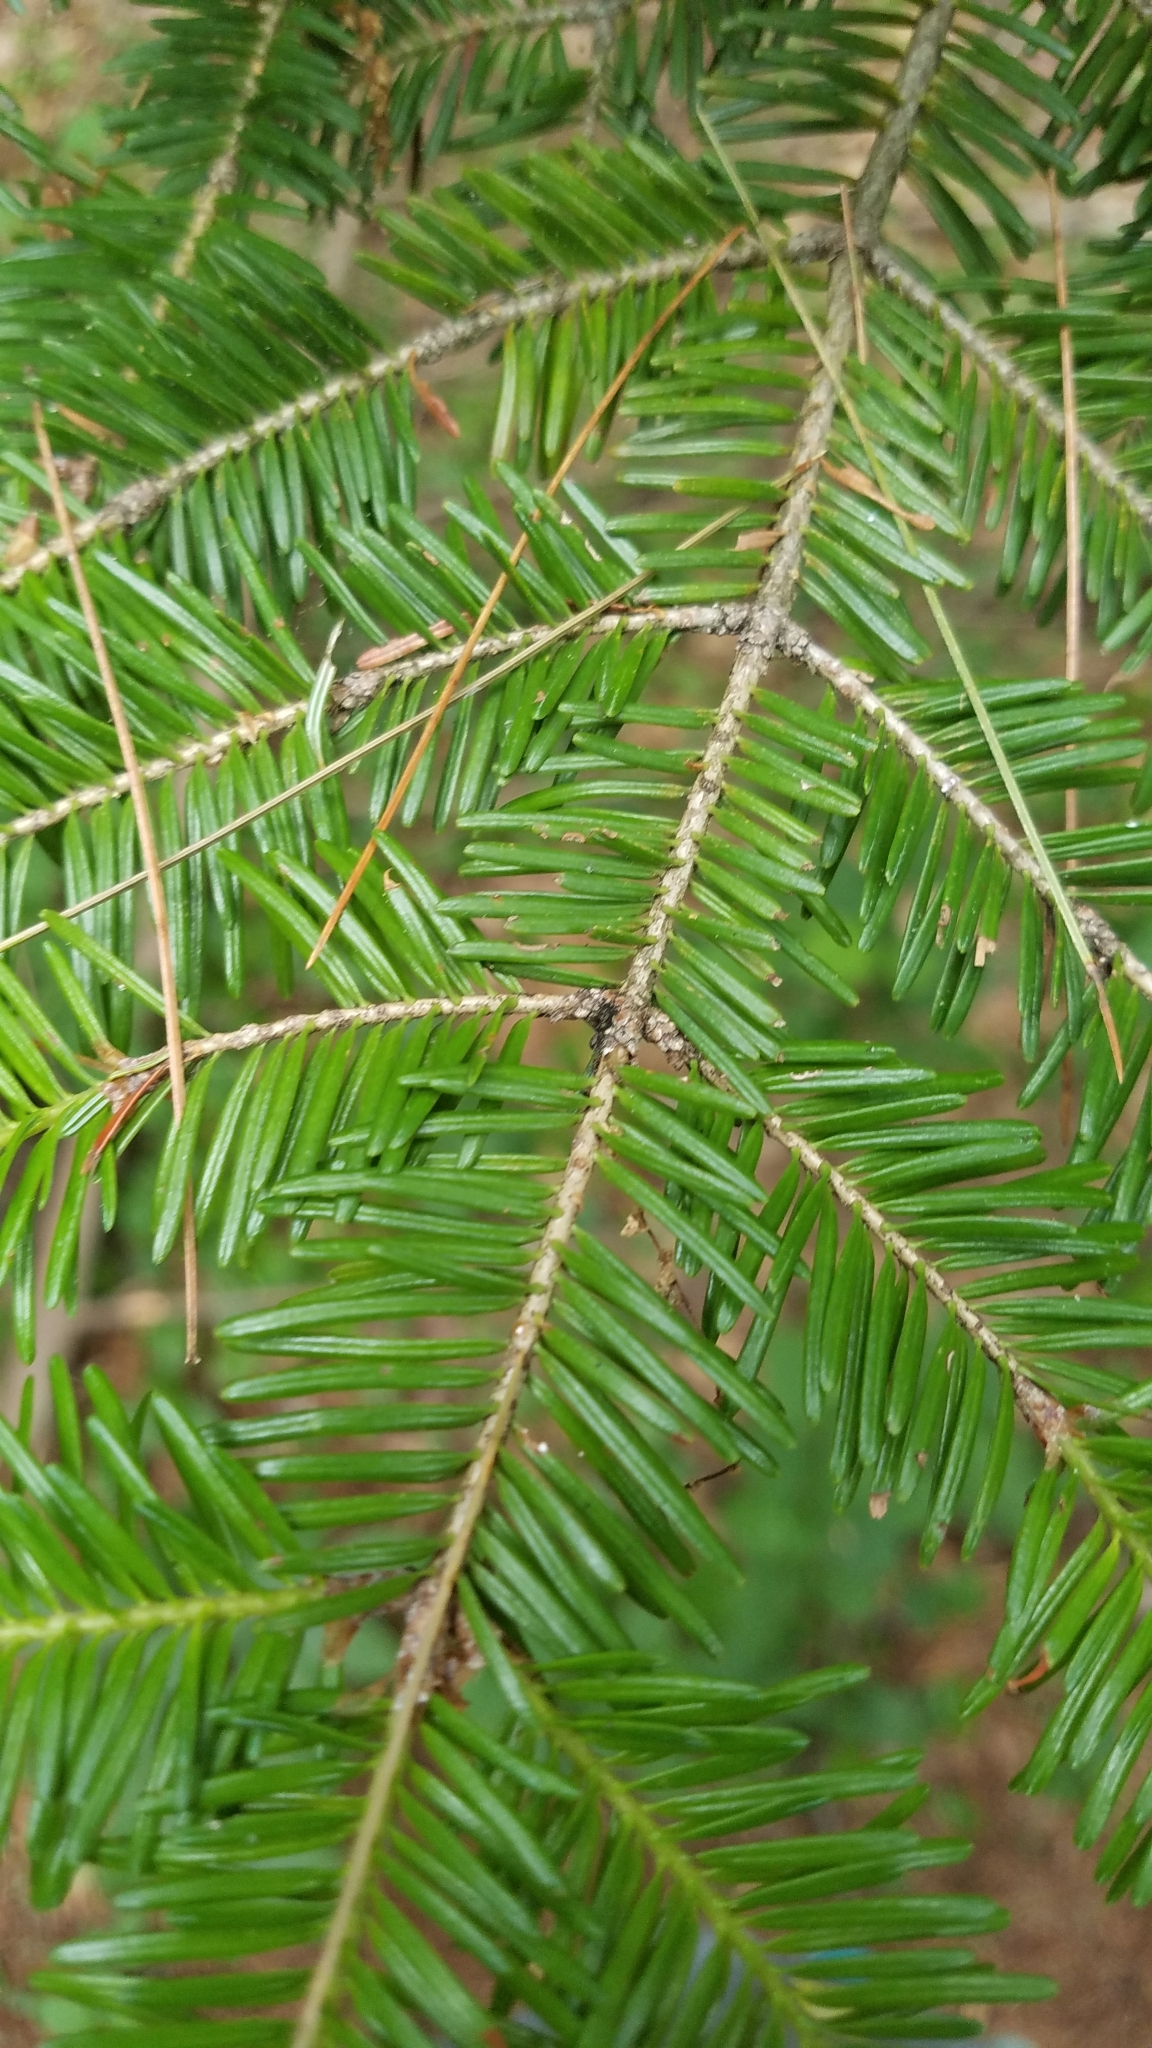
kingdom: Plantae
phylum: Tracheophyta
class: Pinopsida
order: Pinales
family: Pinaceae
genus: Abies
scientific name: Abies balsamea
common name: Balsam fir
